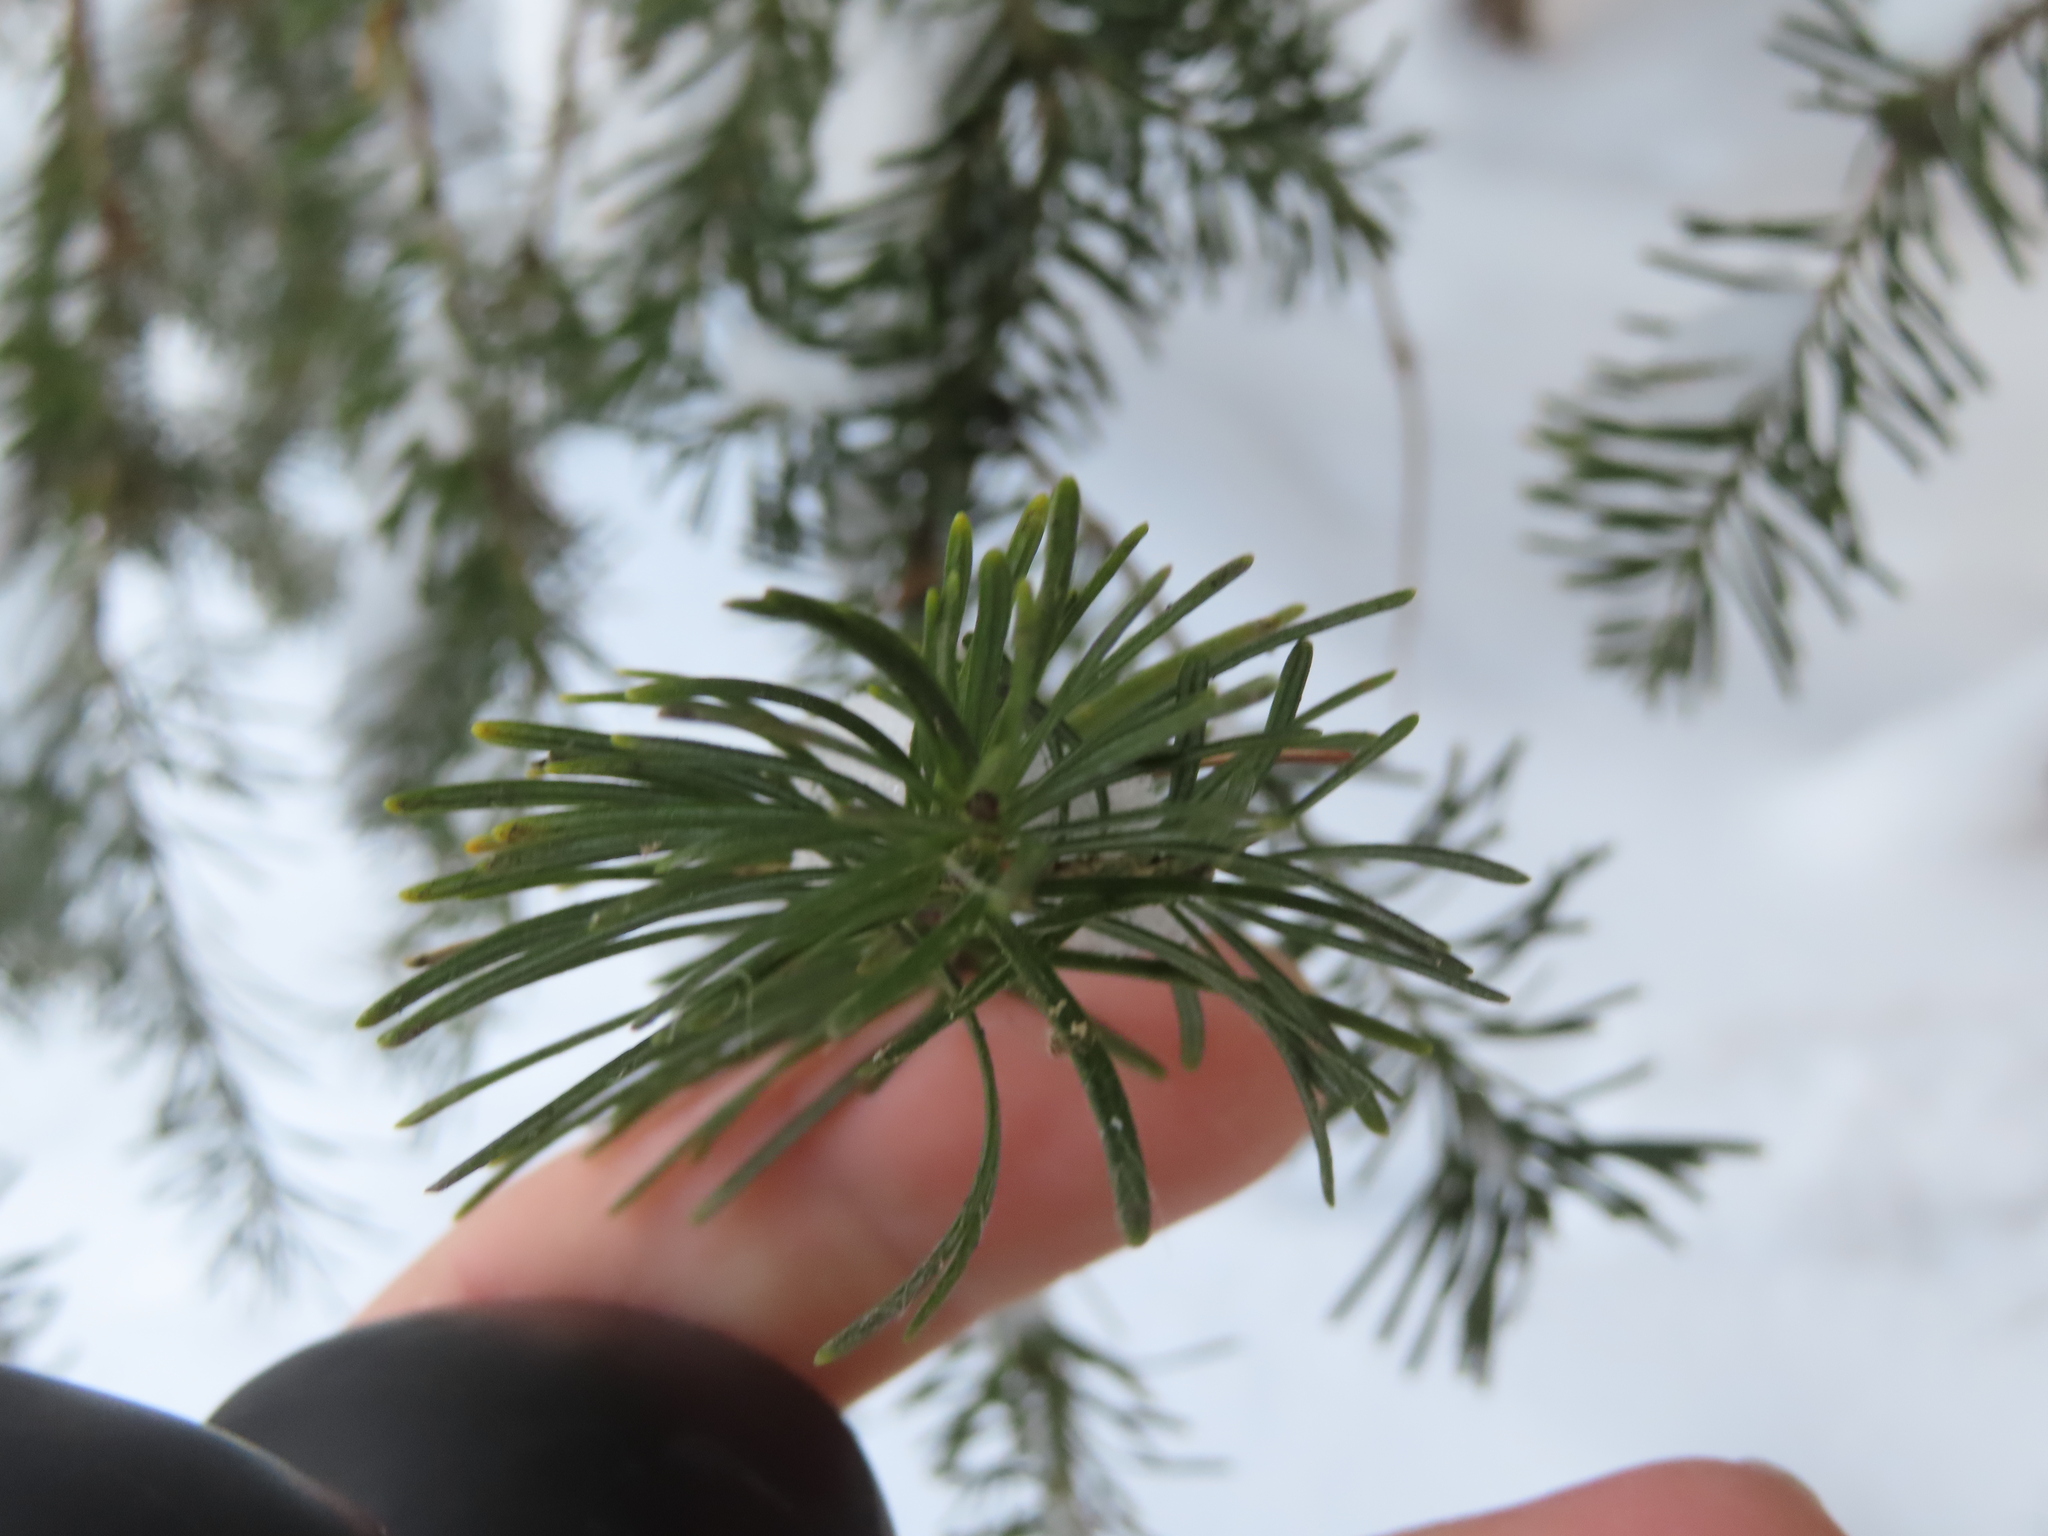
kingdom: Plantae
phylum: Tracheophyta
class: Pinopsida
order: Pinales
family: Pinaceae
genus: Abies
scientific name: Abies lasiocarpa
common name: Subalpine fir
